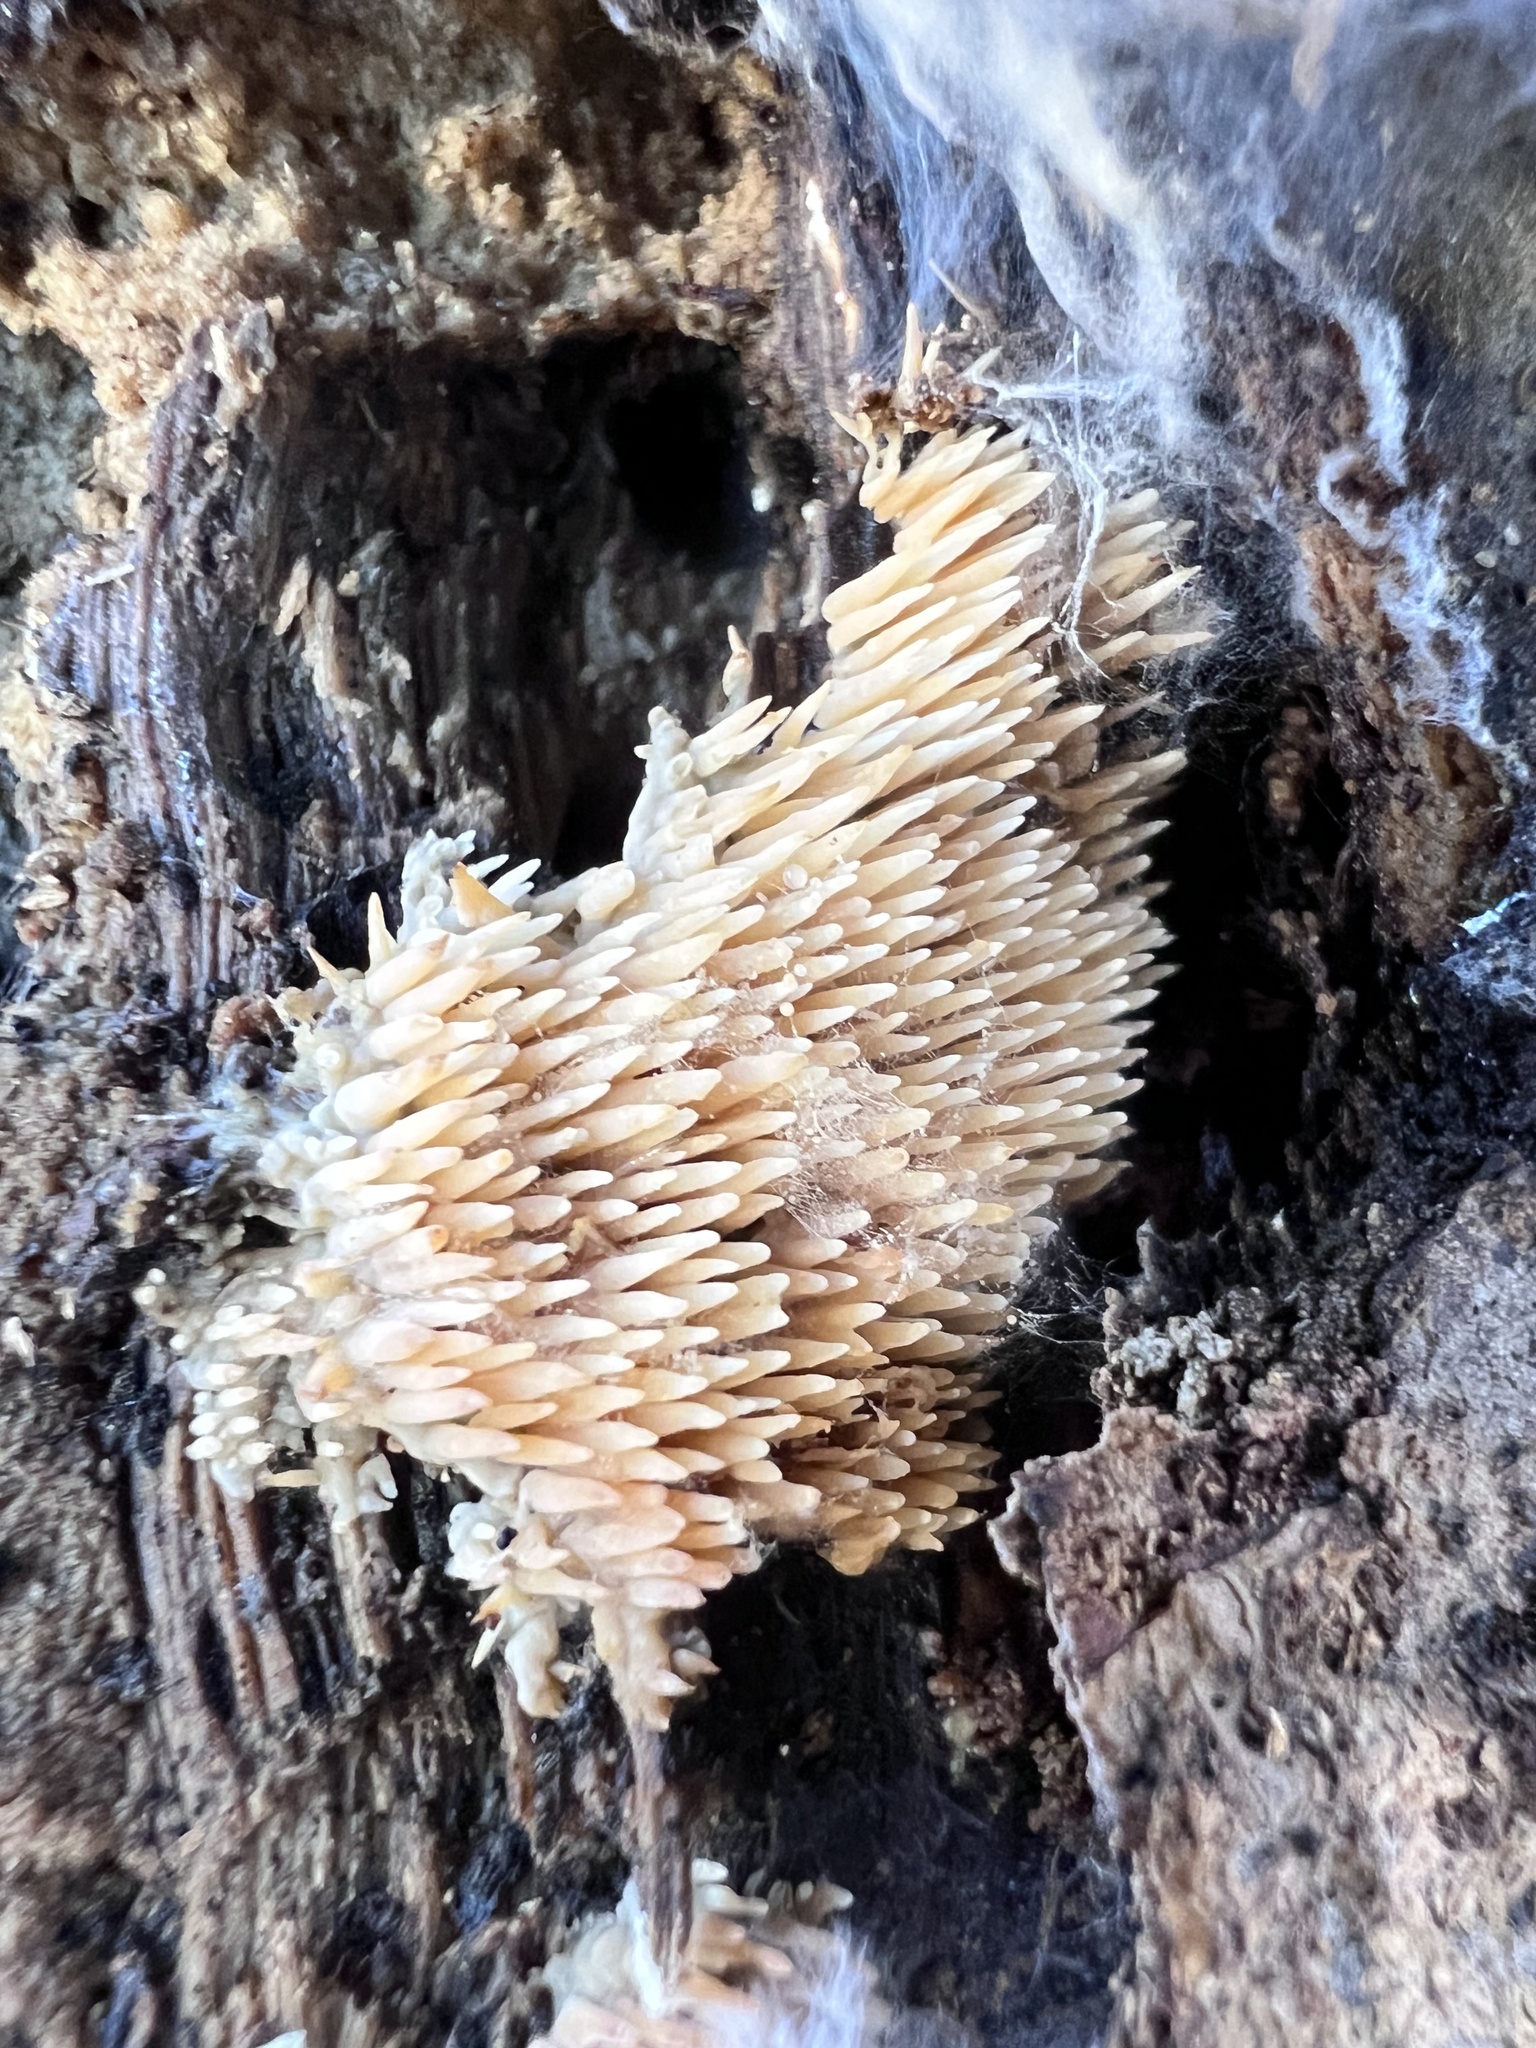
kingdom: Fungi
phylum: Basidiomycota
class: Agaricomycetes
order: Agaricales
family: Radulomycetaceae
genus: Radulomyces
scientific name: Radulomyces copelandii
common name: Asian beauty
